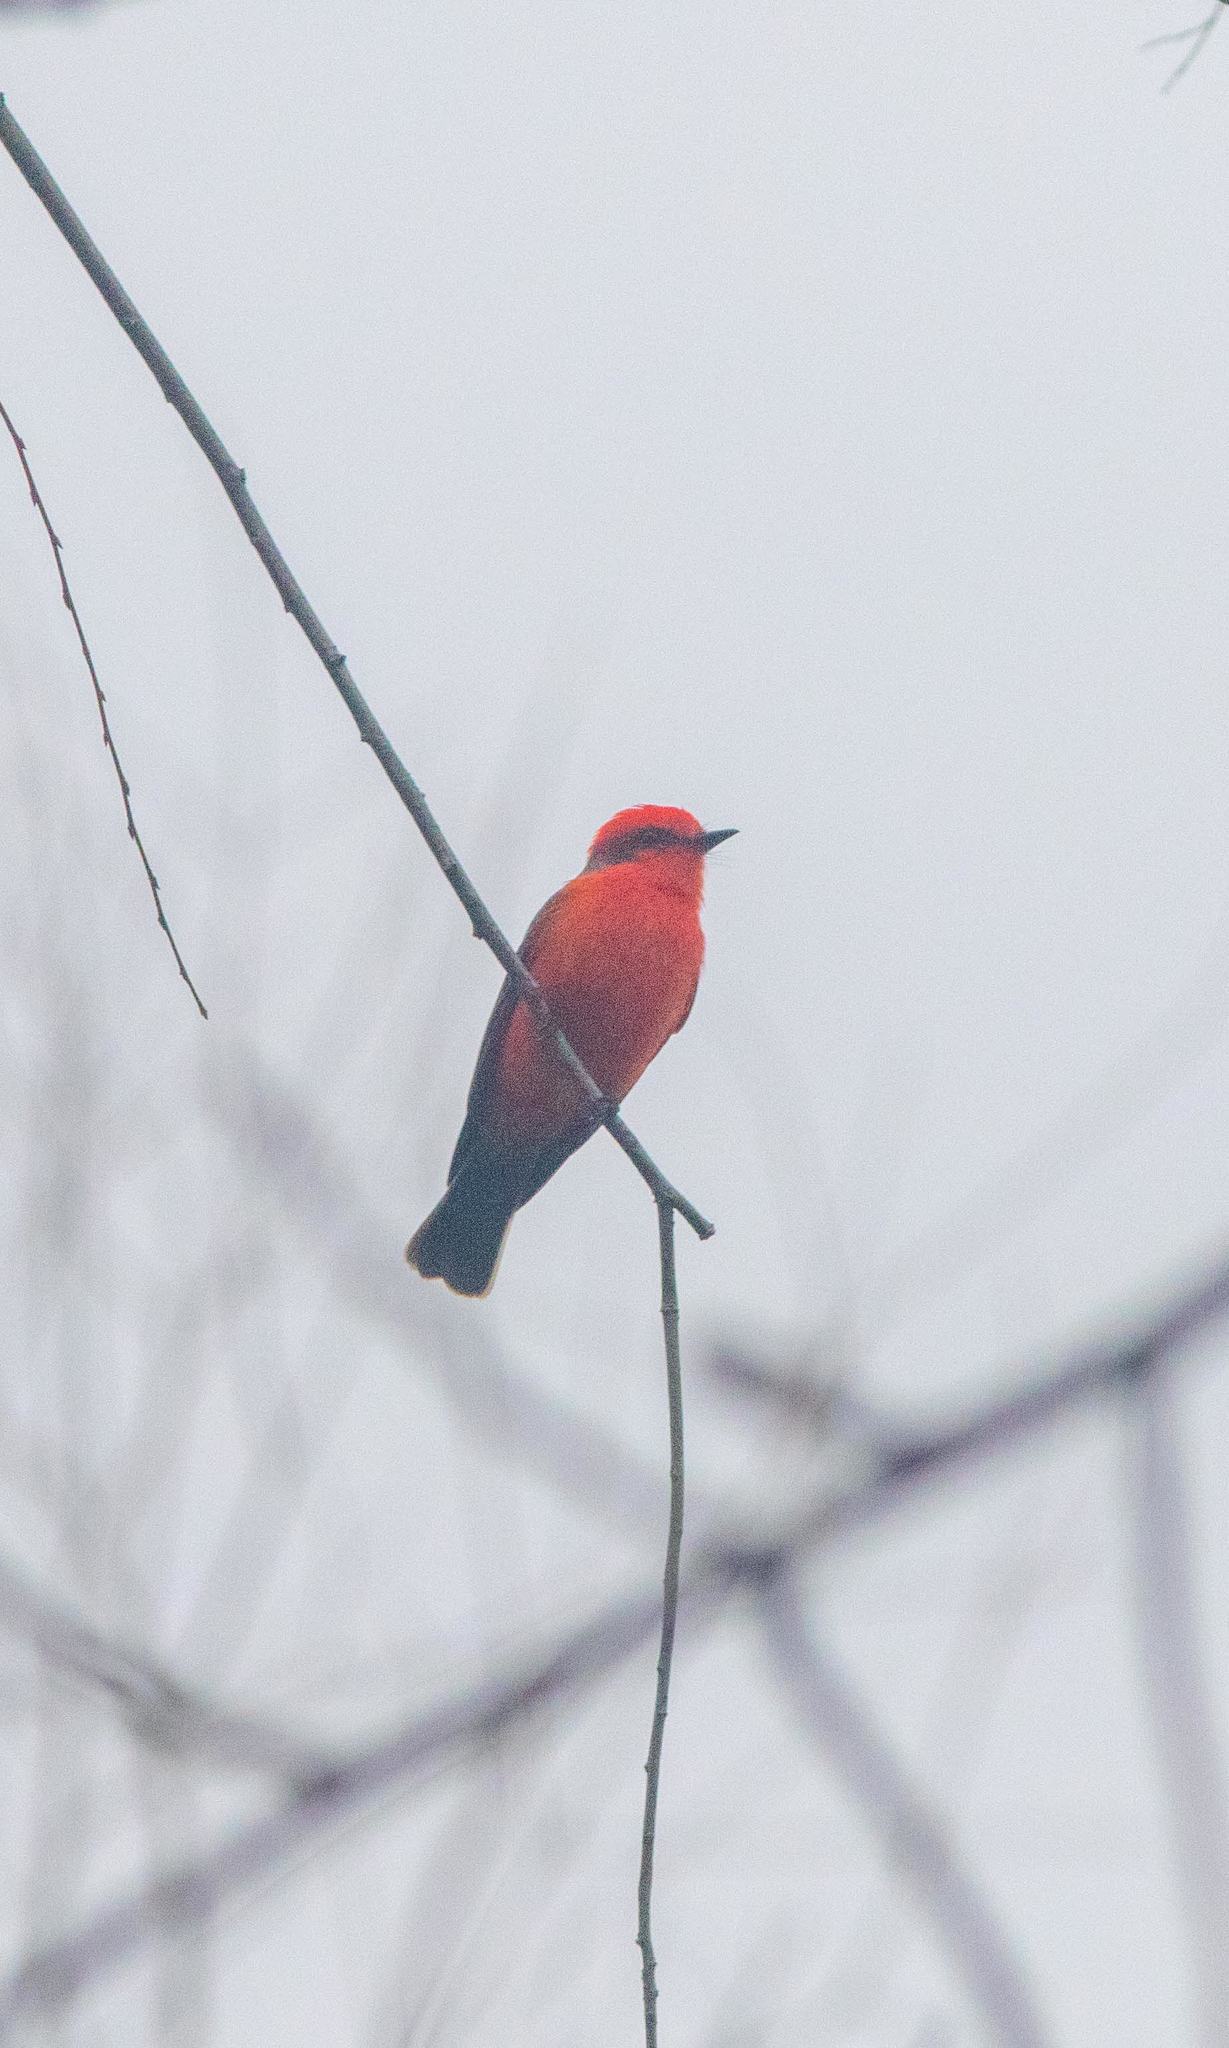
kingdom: Animalia
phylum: Chordata
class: Aves
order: Passeriformes
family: Tyrannidae
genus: Pyrocephalus
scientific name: Pyrocephalus rubinus
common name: Vermilion flycatcher
